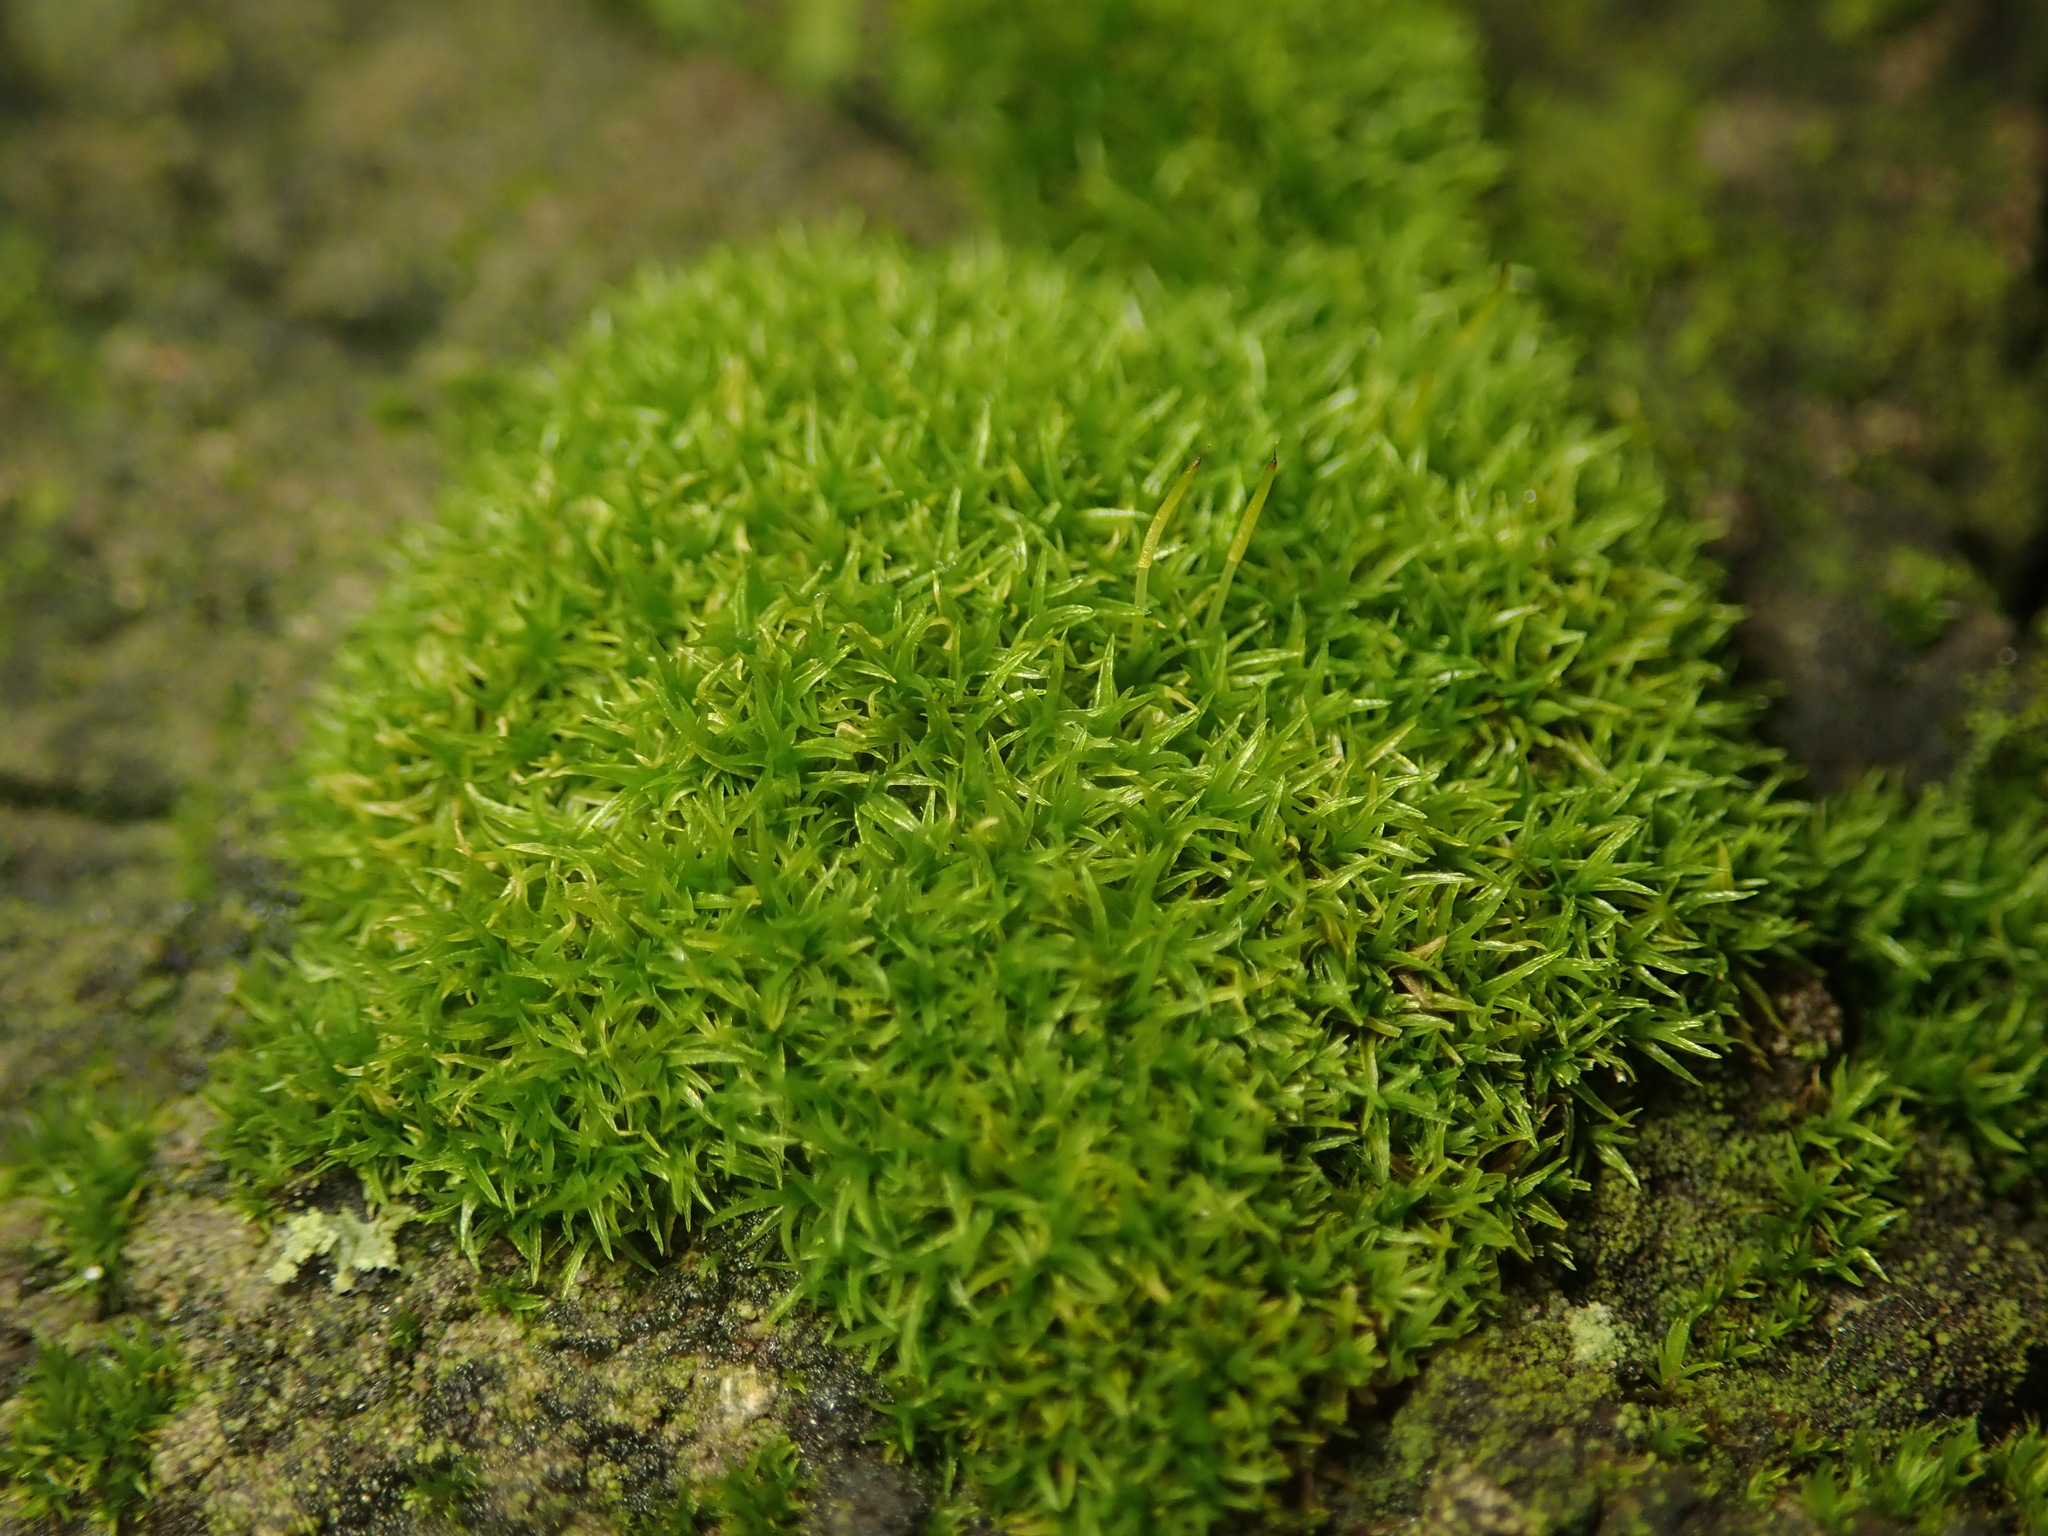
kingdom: Plantae
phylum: Bryophyta
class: Bryopsida
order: Dicranales
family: Rhabdoweisiaceae
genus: Dicranoweisia
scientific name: Dicranoweisia cirrata
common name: Common pincushion
